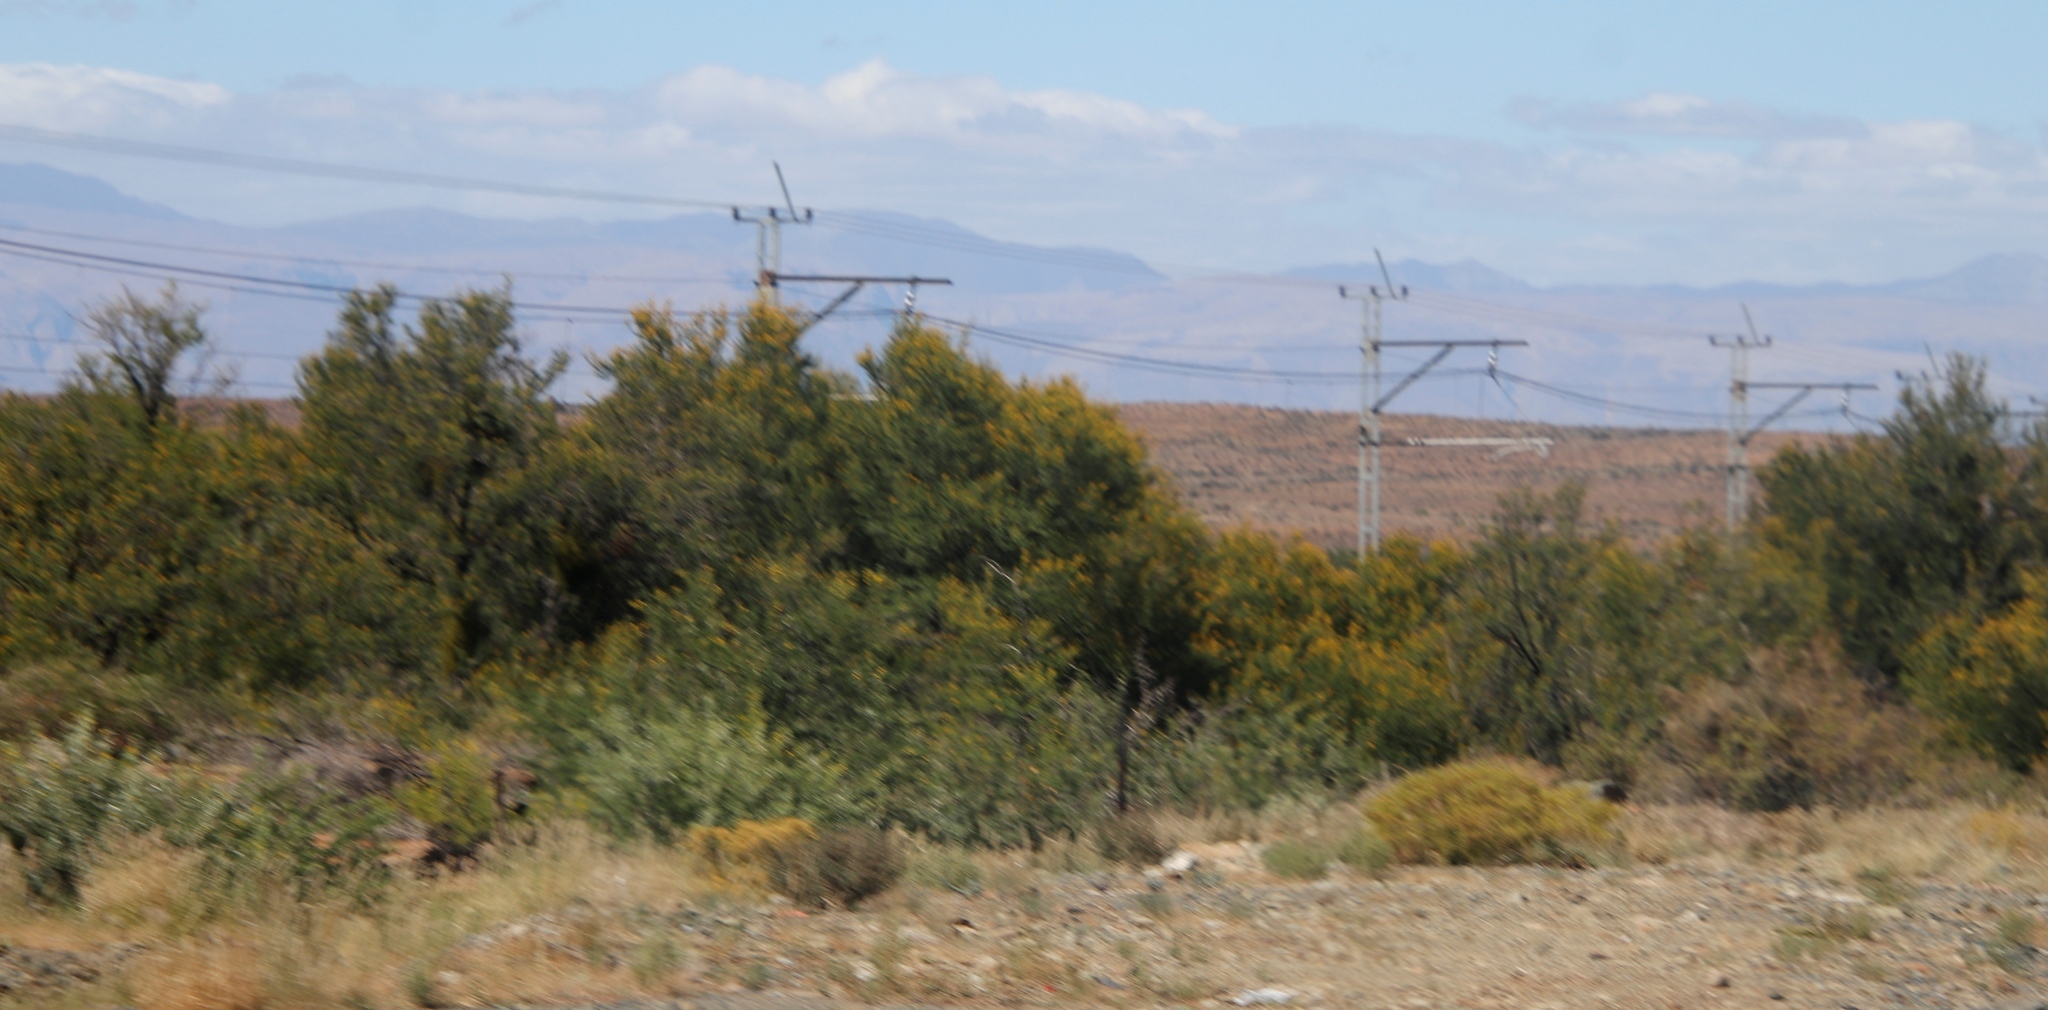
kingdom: Plantae
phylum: Tracheophyta
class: Magnoliopsida
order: Fabales
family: Fabaceae
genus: Vachellia
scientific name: Vachellia karroo
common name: Sweet thorn
